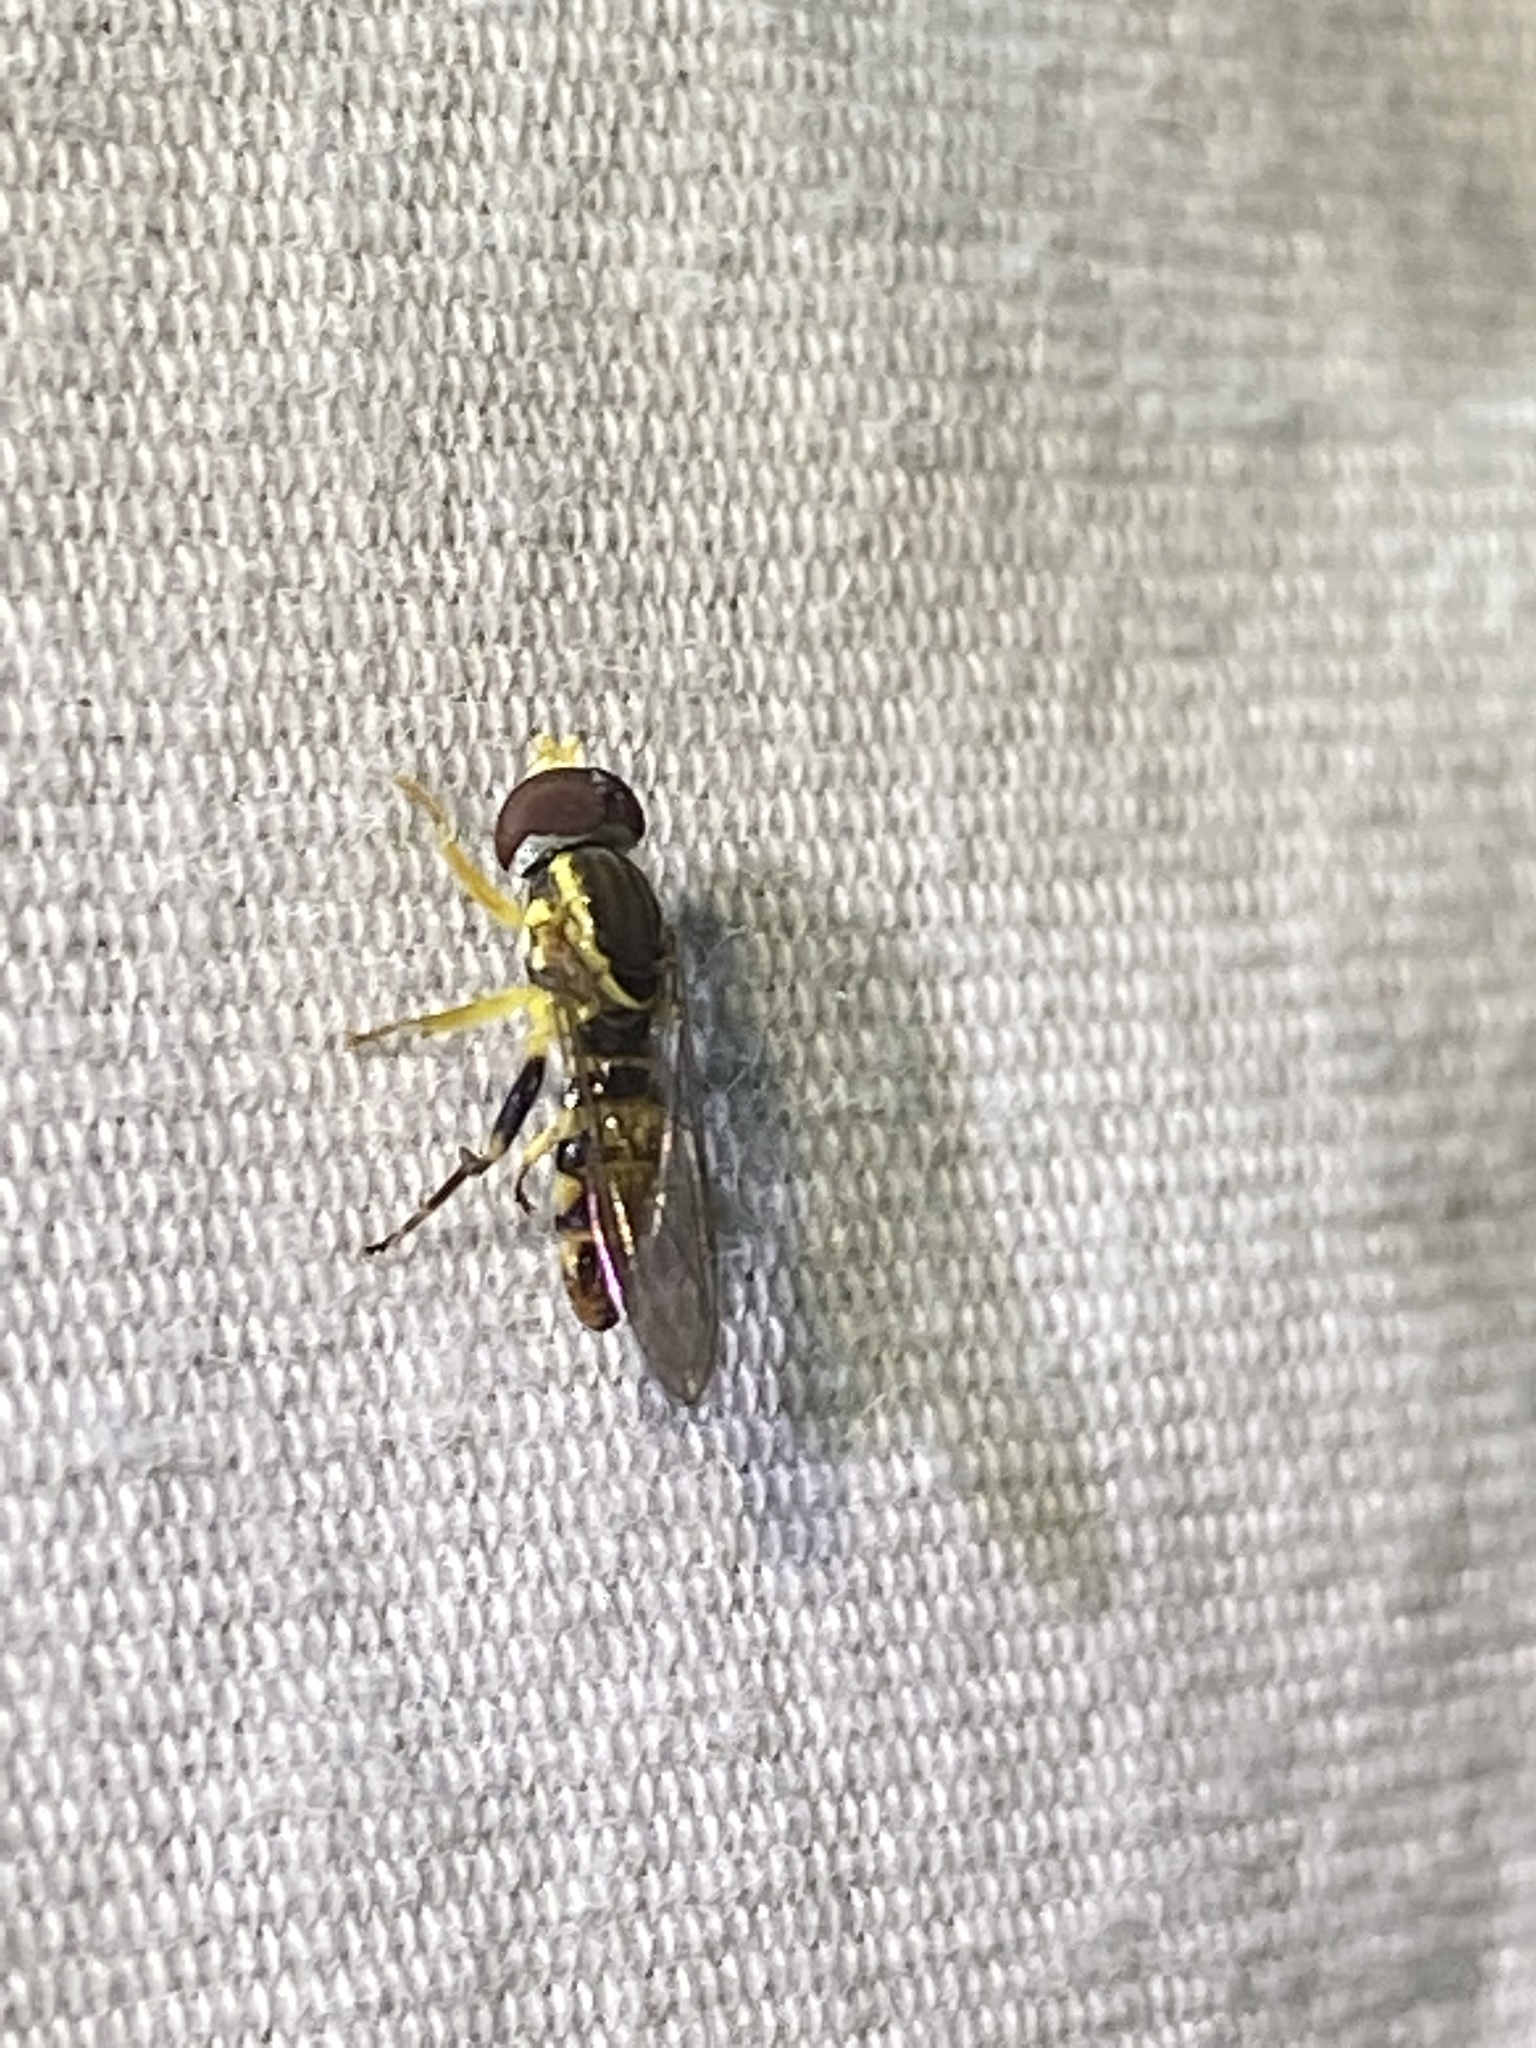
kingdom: Animalia
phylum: Arthropoda
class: Insecta
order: Diptera
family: Syrphidae
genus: Toxomerus
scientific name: Toxomerus geminatus
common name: Eastern calligrapher
